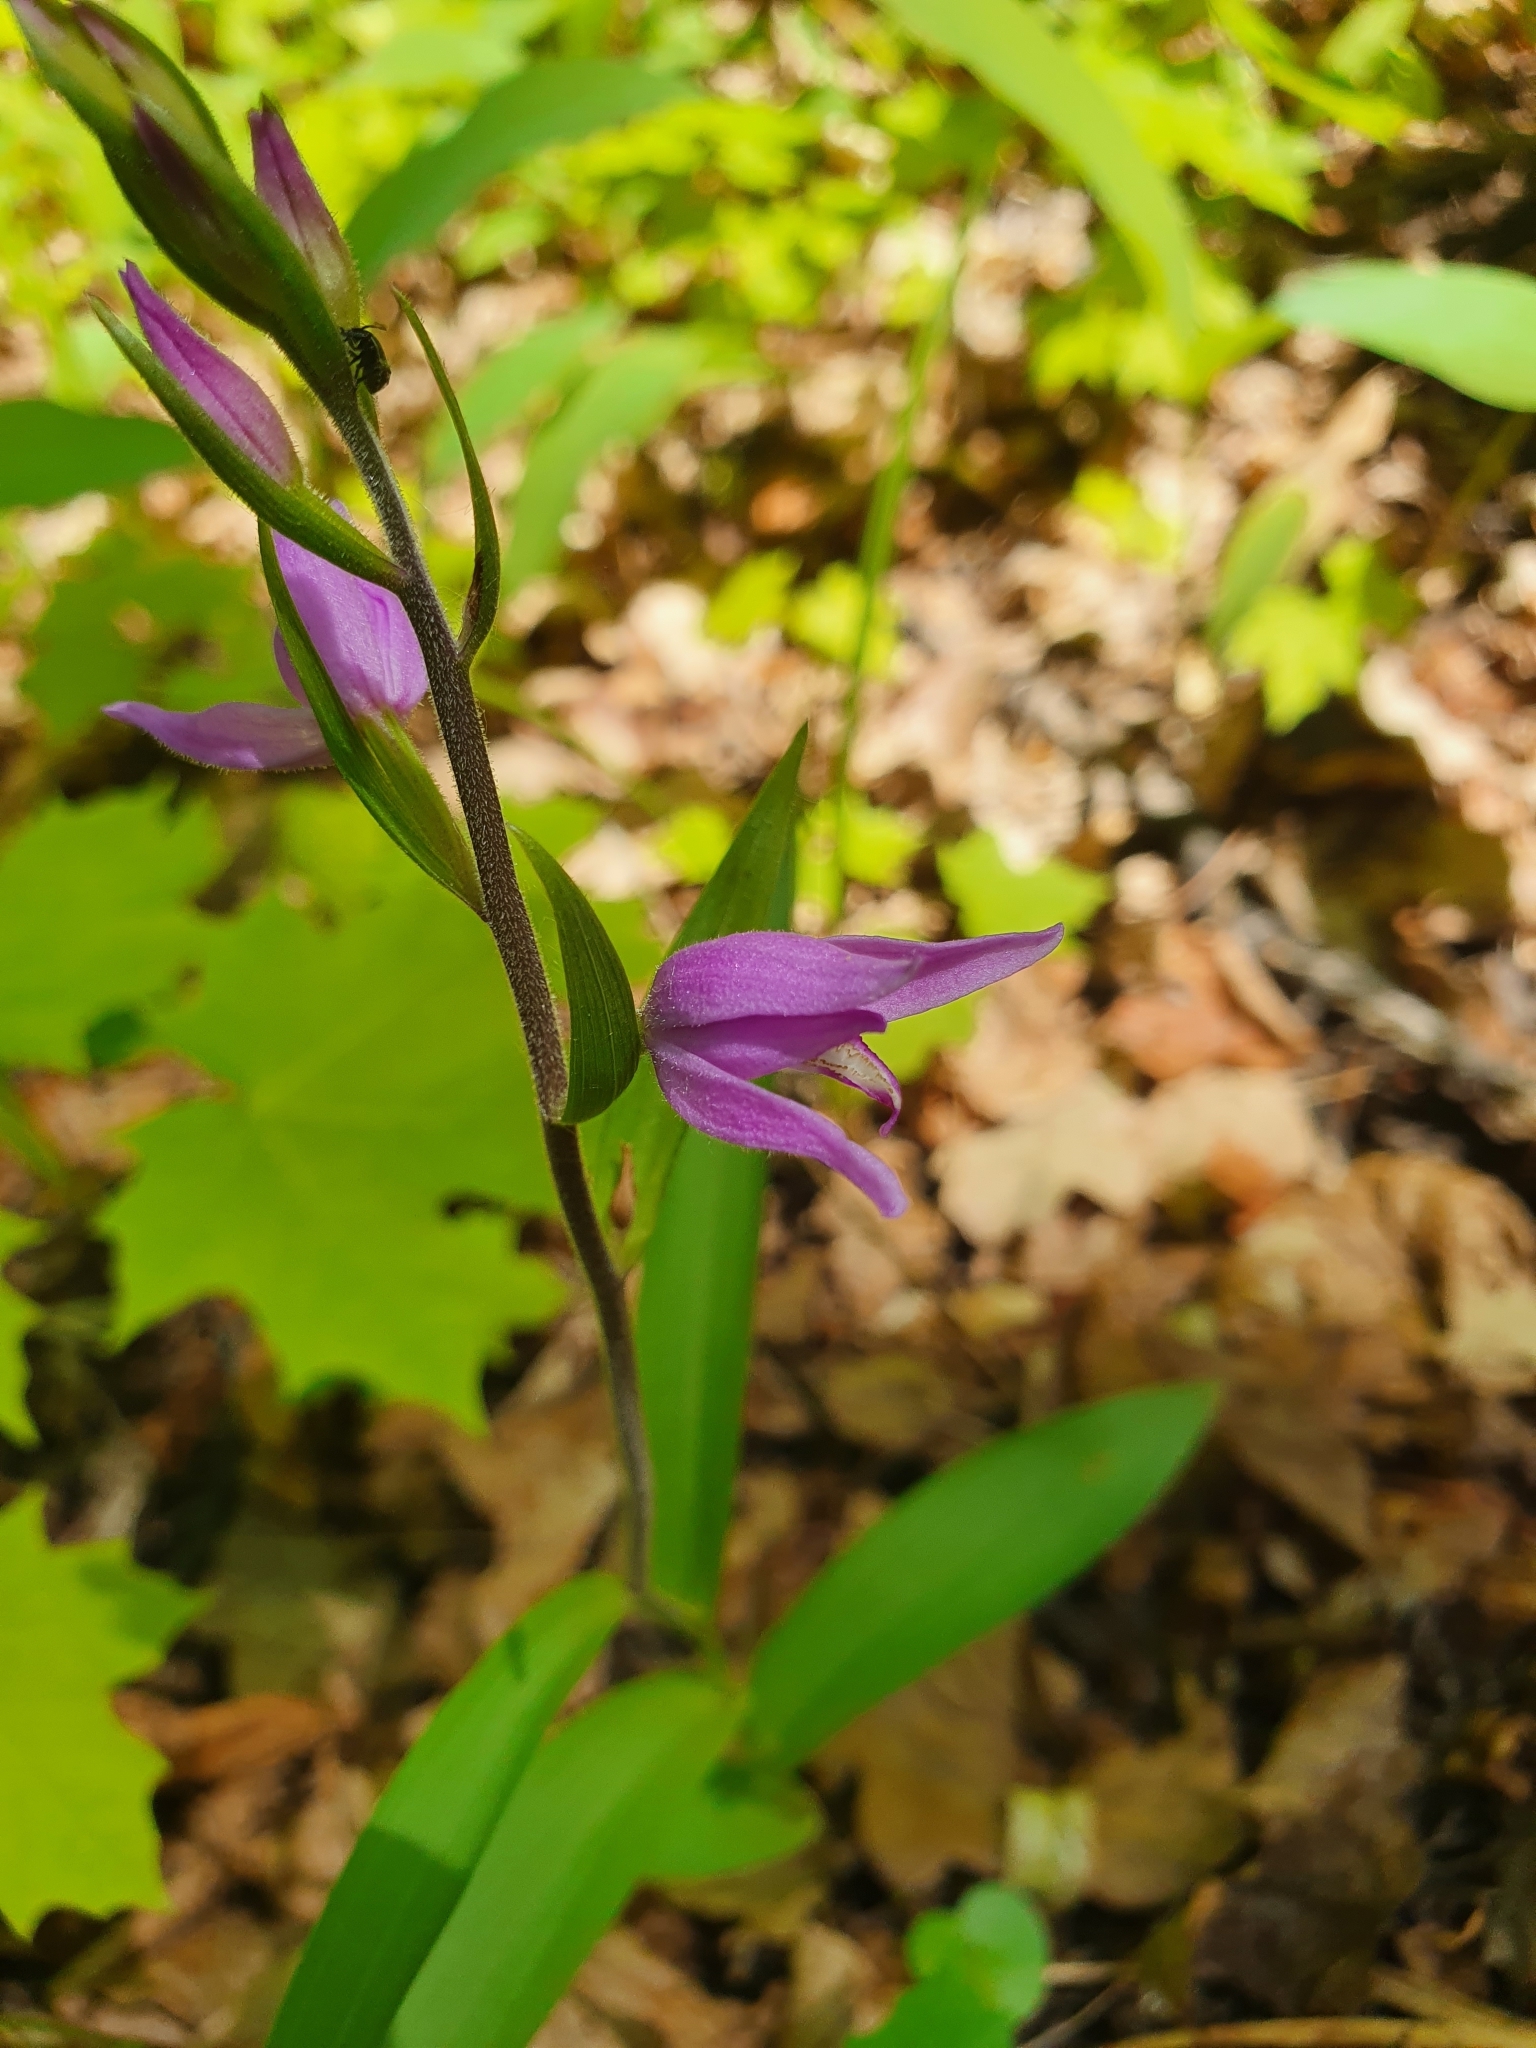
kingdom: Plantae
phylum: Tracheophyta
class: Liliopsida
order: Asparagales
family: Orchidaceae
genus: Cephalanthera
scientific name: Cephalanthera rubra
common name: Red helleborine
